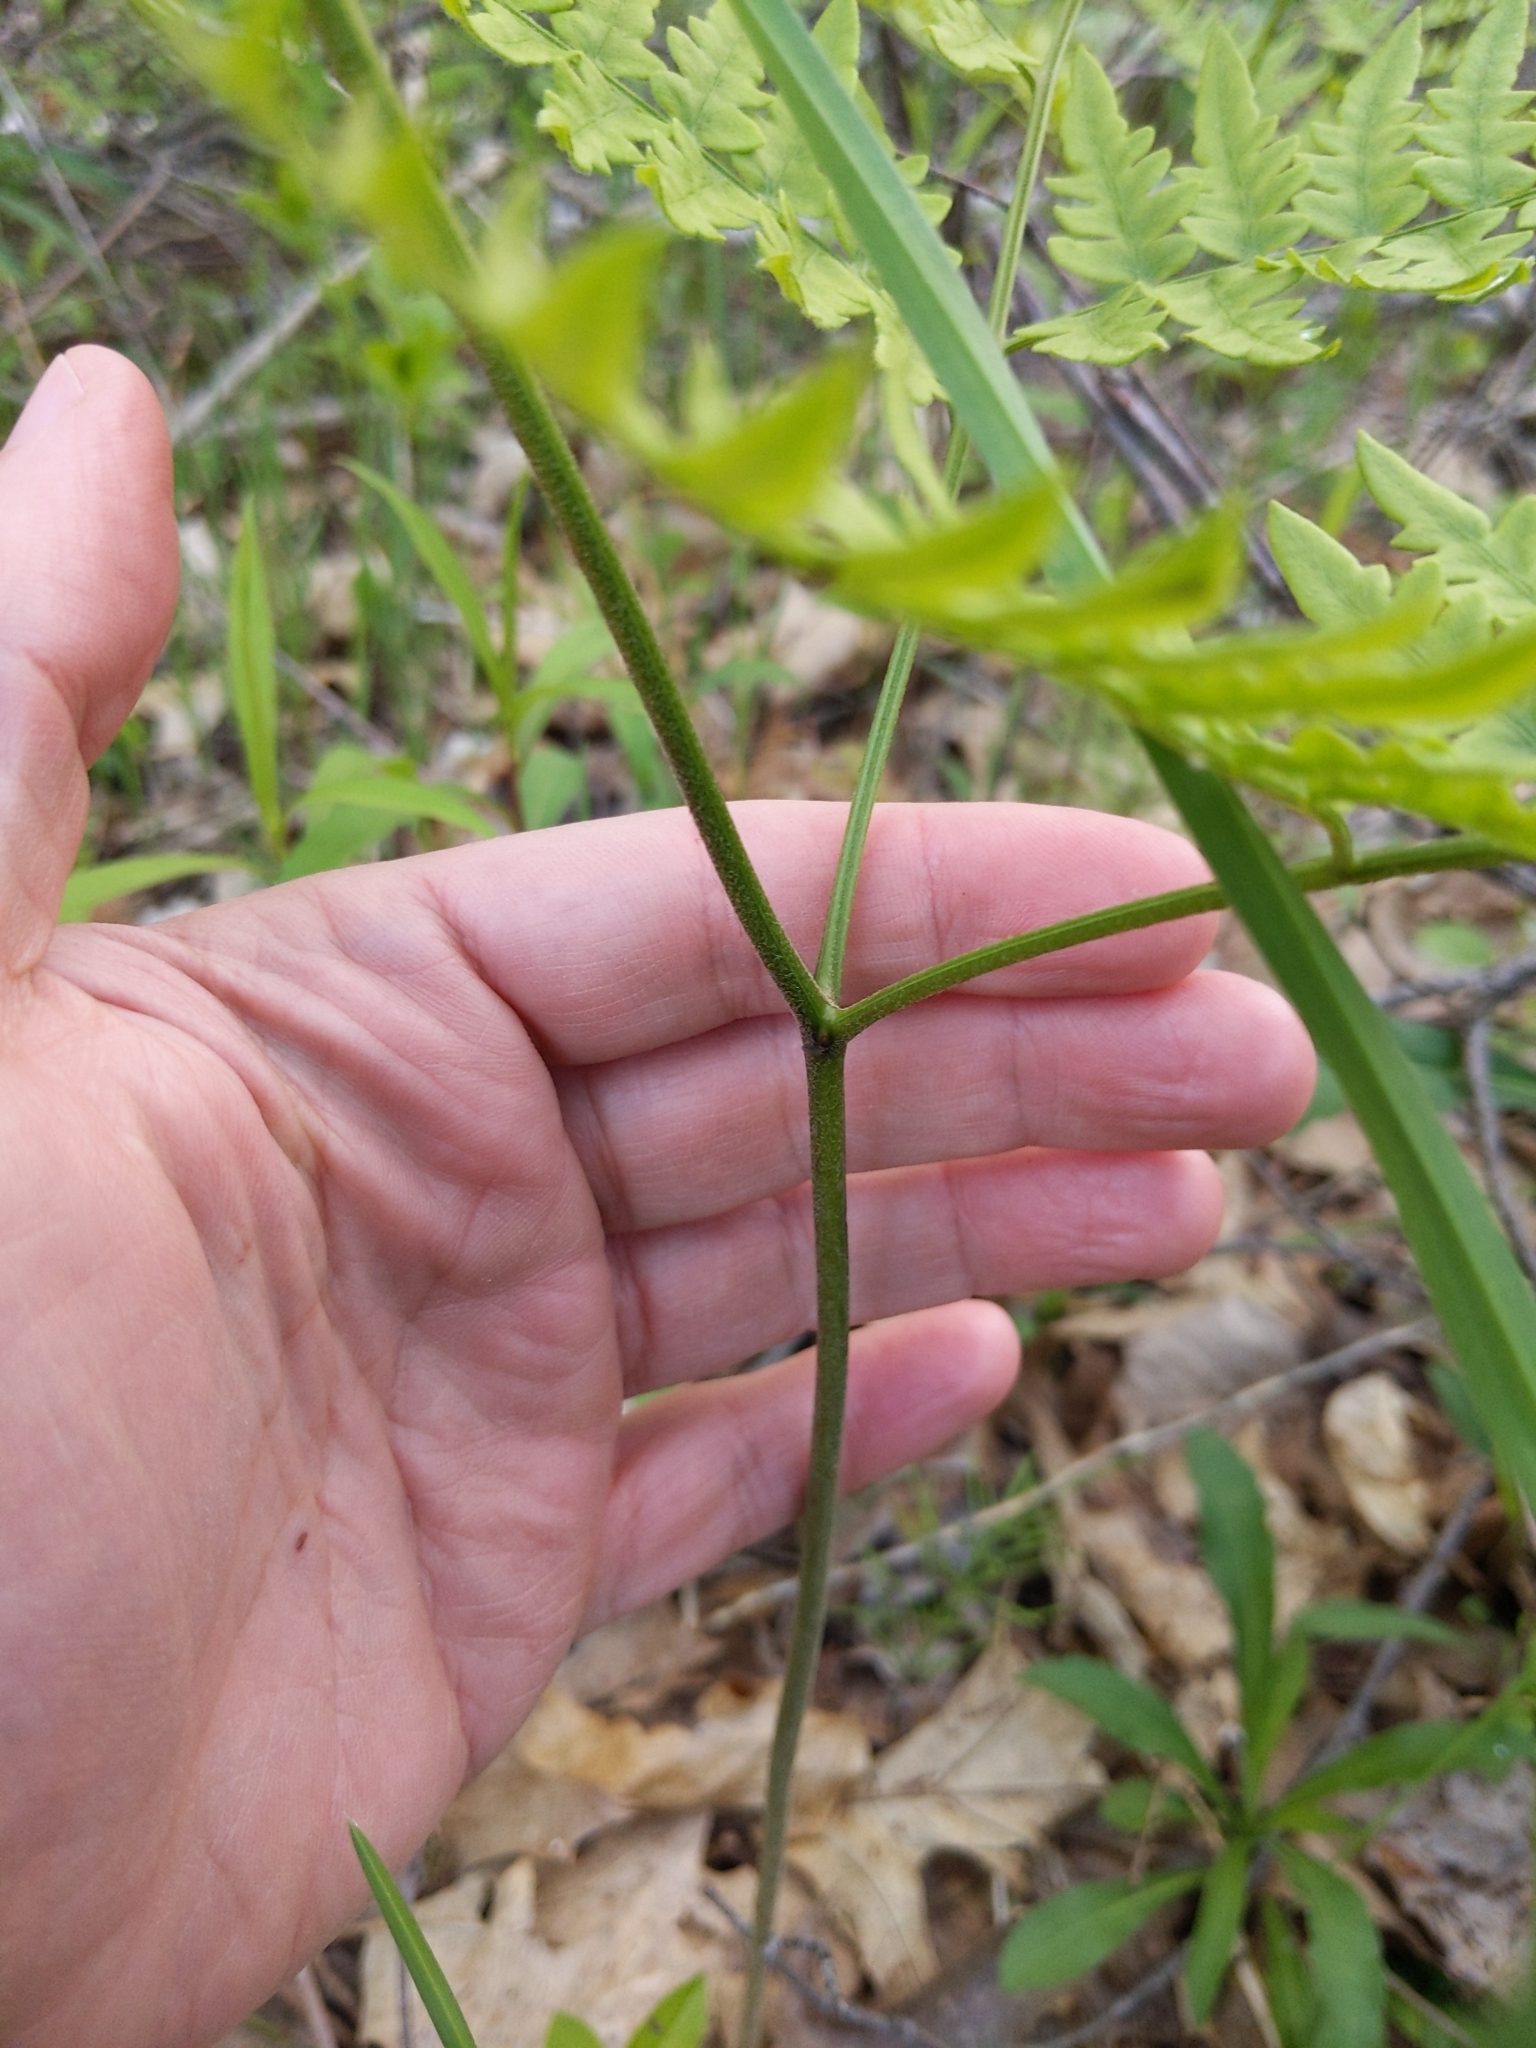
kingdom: Plantae
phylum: Tracheophyta
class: Polypodiopsida
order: Polypodiales
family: Dennstaedtiaceae
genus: Pteridium
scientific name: Pteridium aquilinum
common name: Bracken
